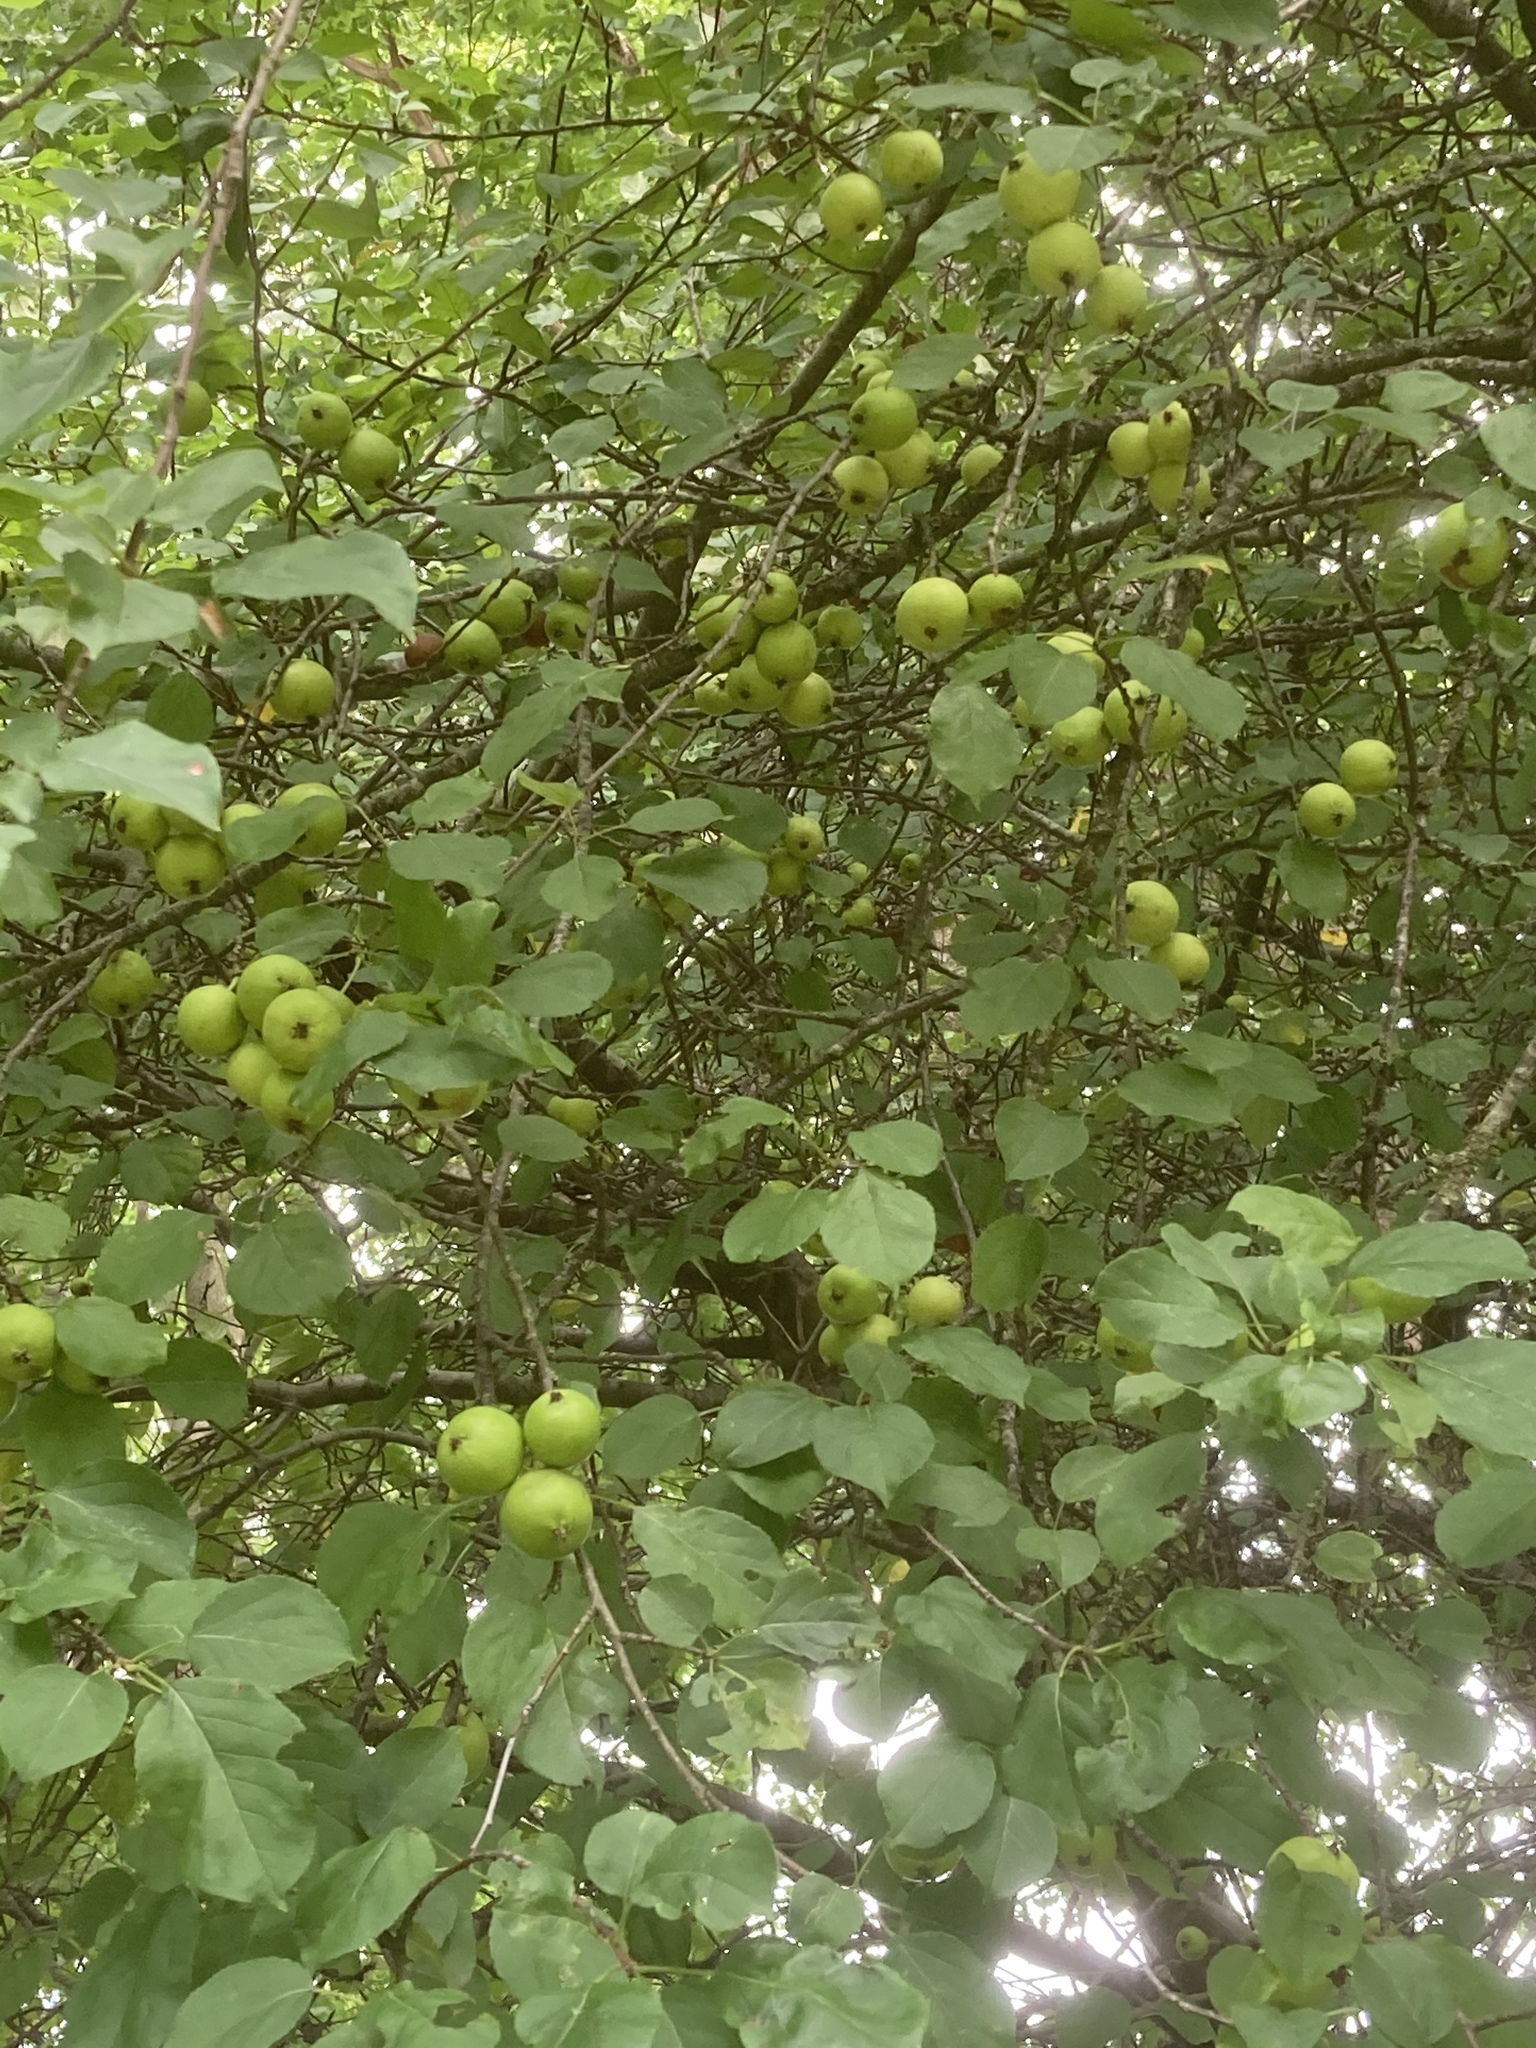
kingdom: Plantae
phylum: Tracheophyta
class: Magnoliopsida
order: Rosales
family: Rosaceae
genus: Malus
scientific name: Malus sylvestris
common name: Crab apple
